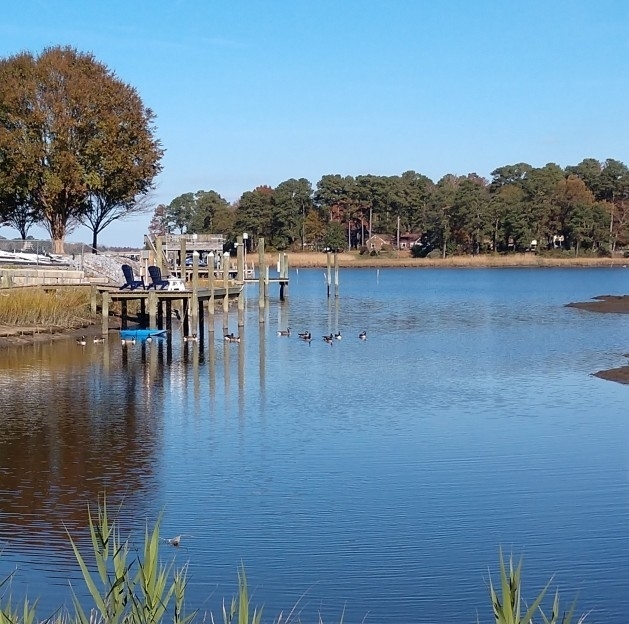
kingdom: Animalia
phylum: Chordata
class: Aves
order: Anseriformes
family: Anatidae
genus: Branta
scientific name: Branta canadensis
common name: Canada goose
